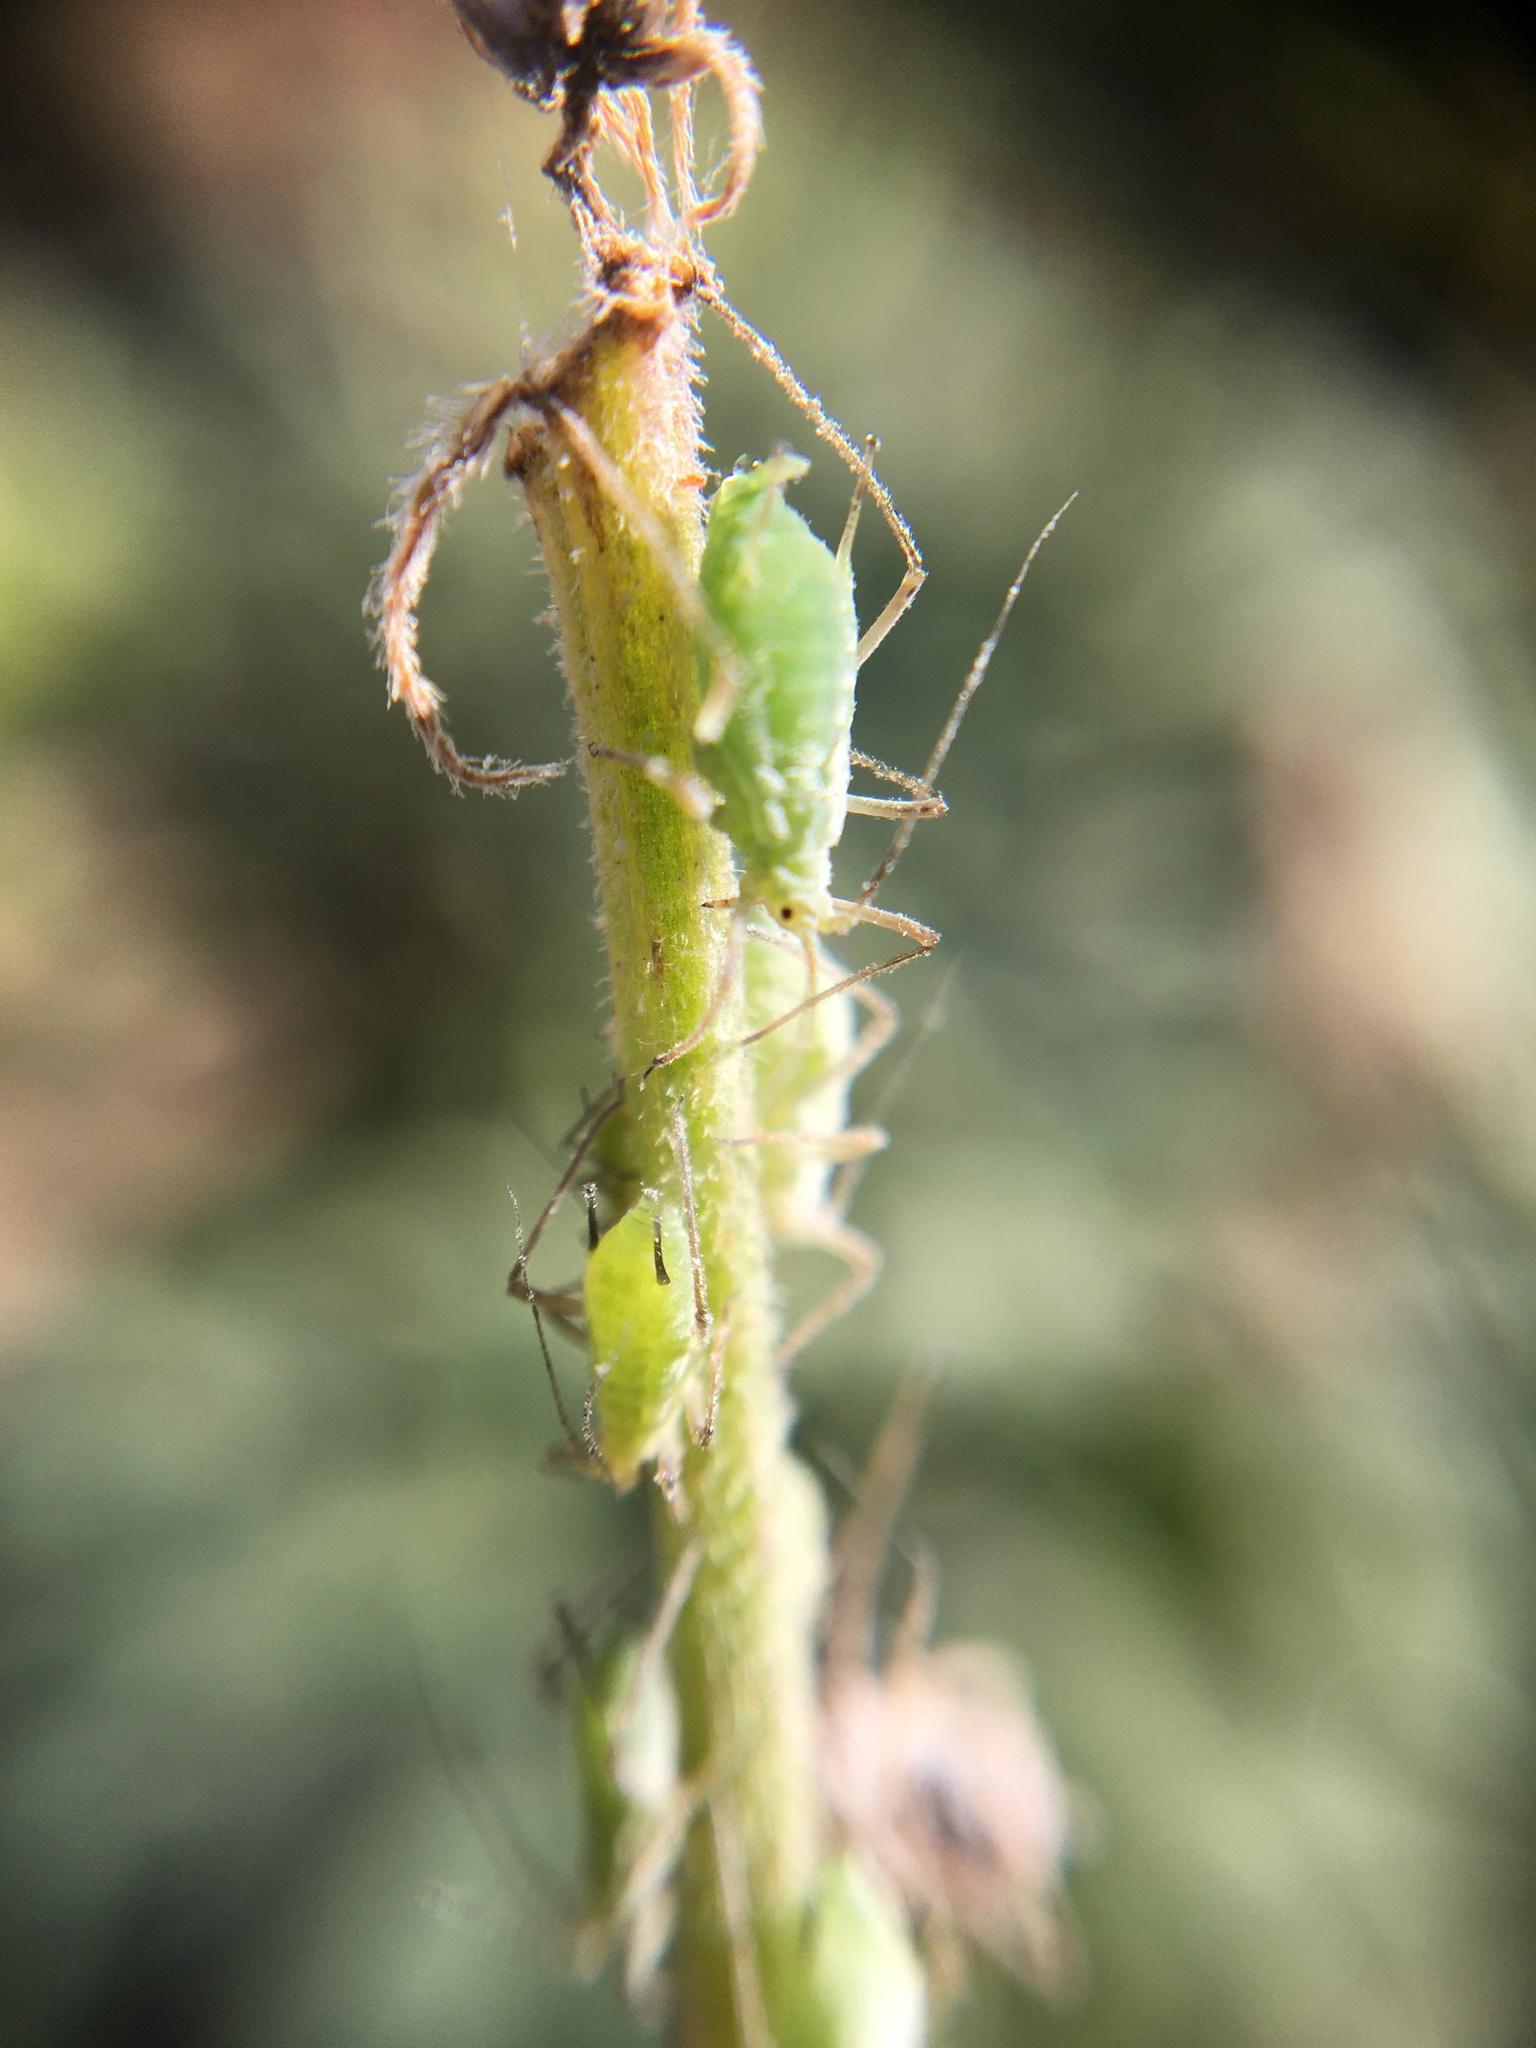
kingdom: Animalia
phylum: Arthropoda
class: Insecta
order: Hemiptera
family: Aphididae
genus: Macrosiphum
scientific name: Macrosiphum albifrons
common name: Lupine aphid
